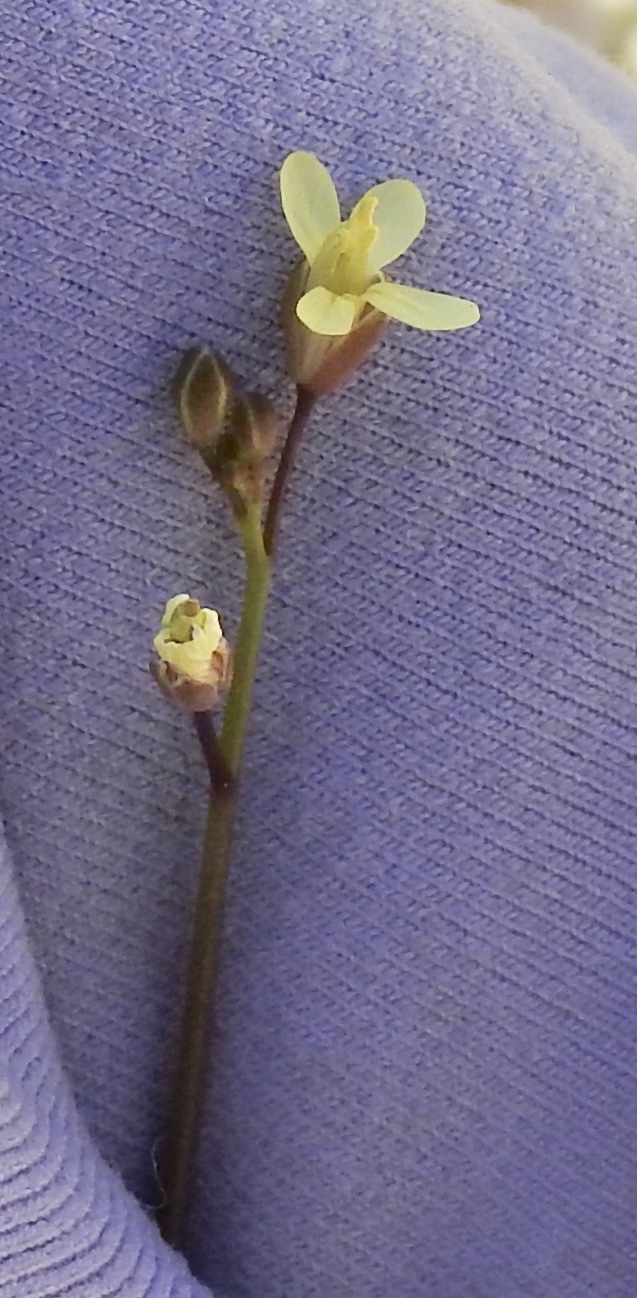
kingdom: Plantae
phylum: Tracheophyta
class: Magnoliopsida
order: Brassicales
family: Brassicaceae
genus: Brassica
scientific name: Brassica tournefortii
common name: Pale cabbage
